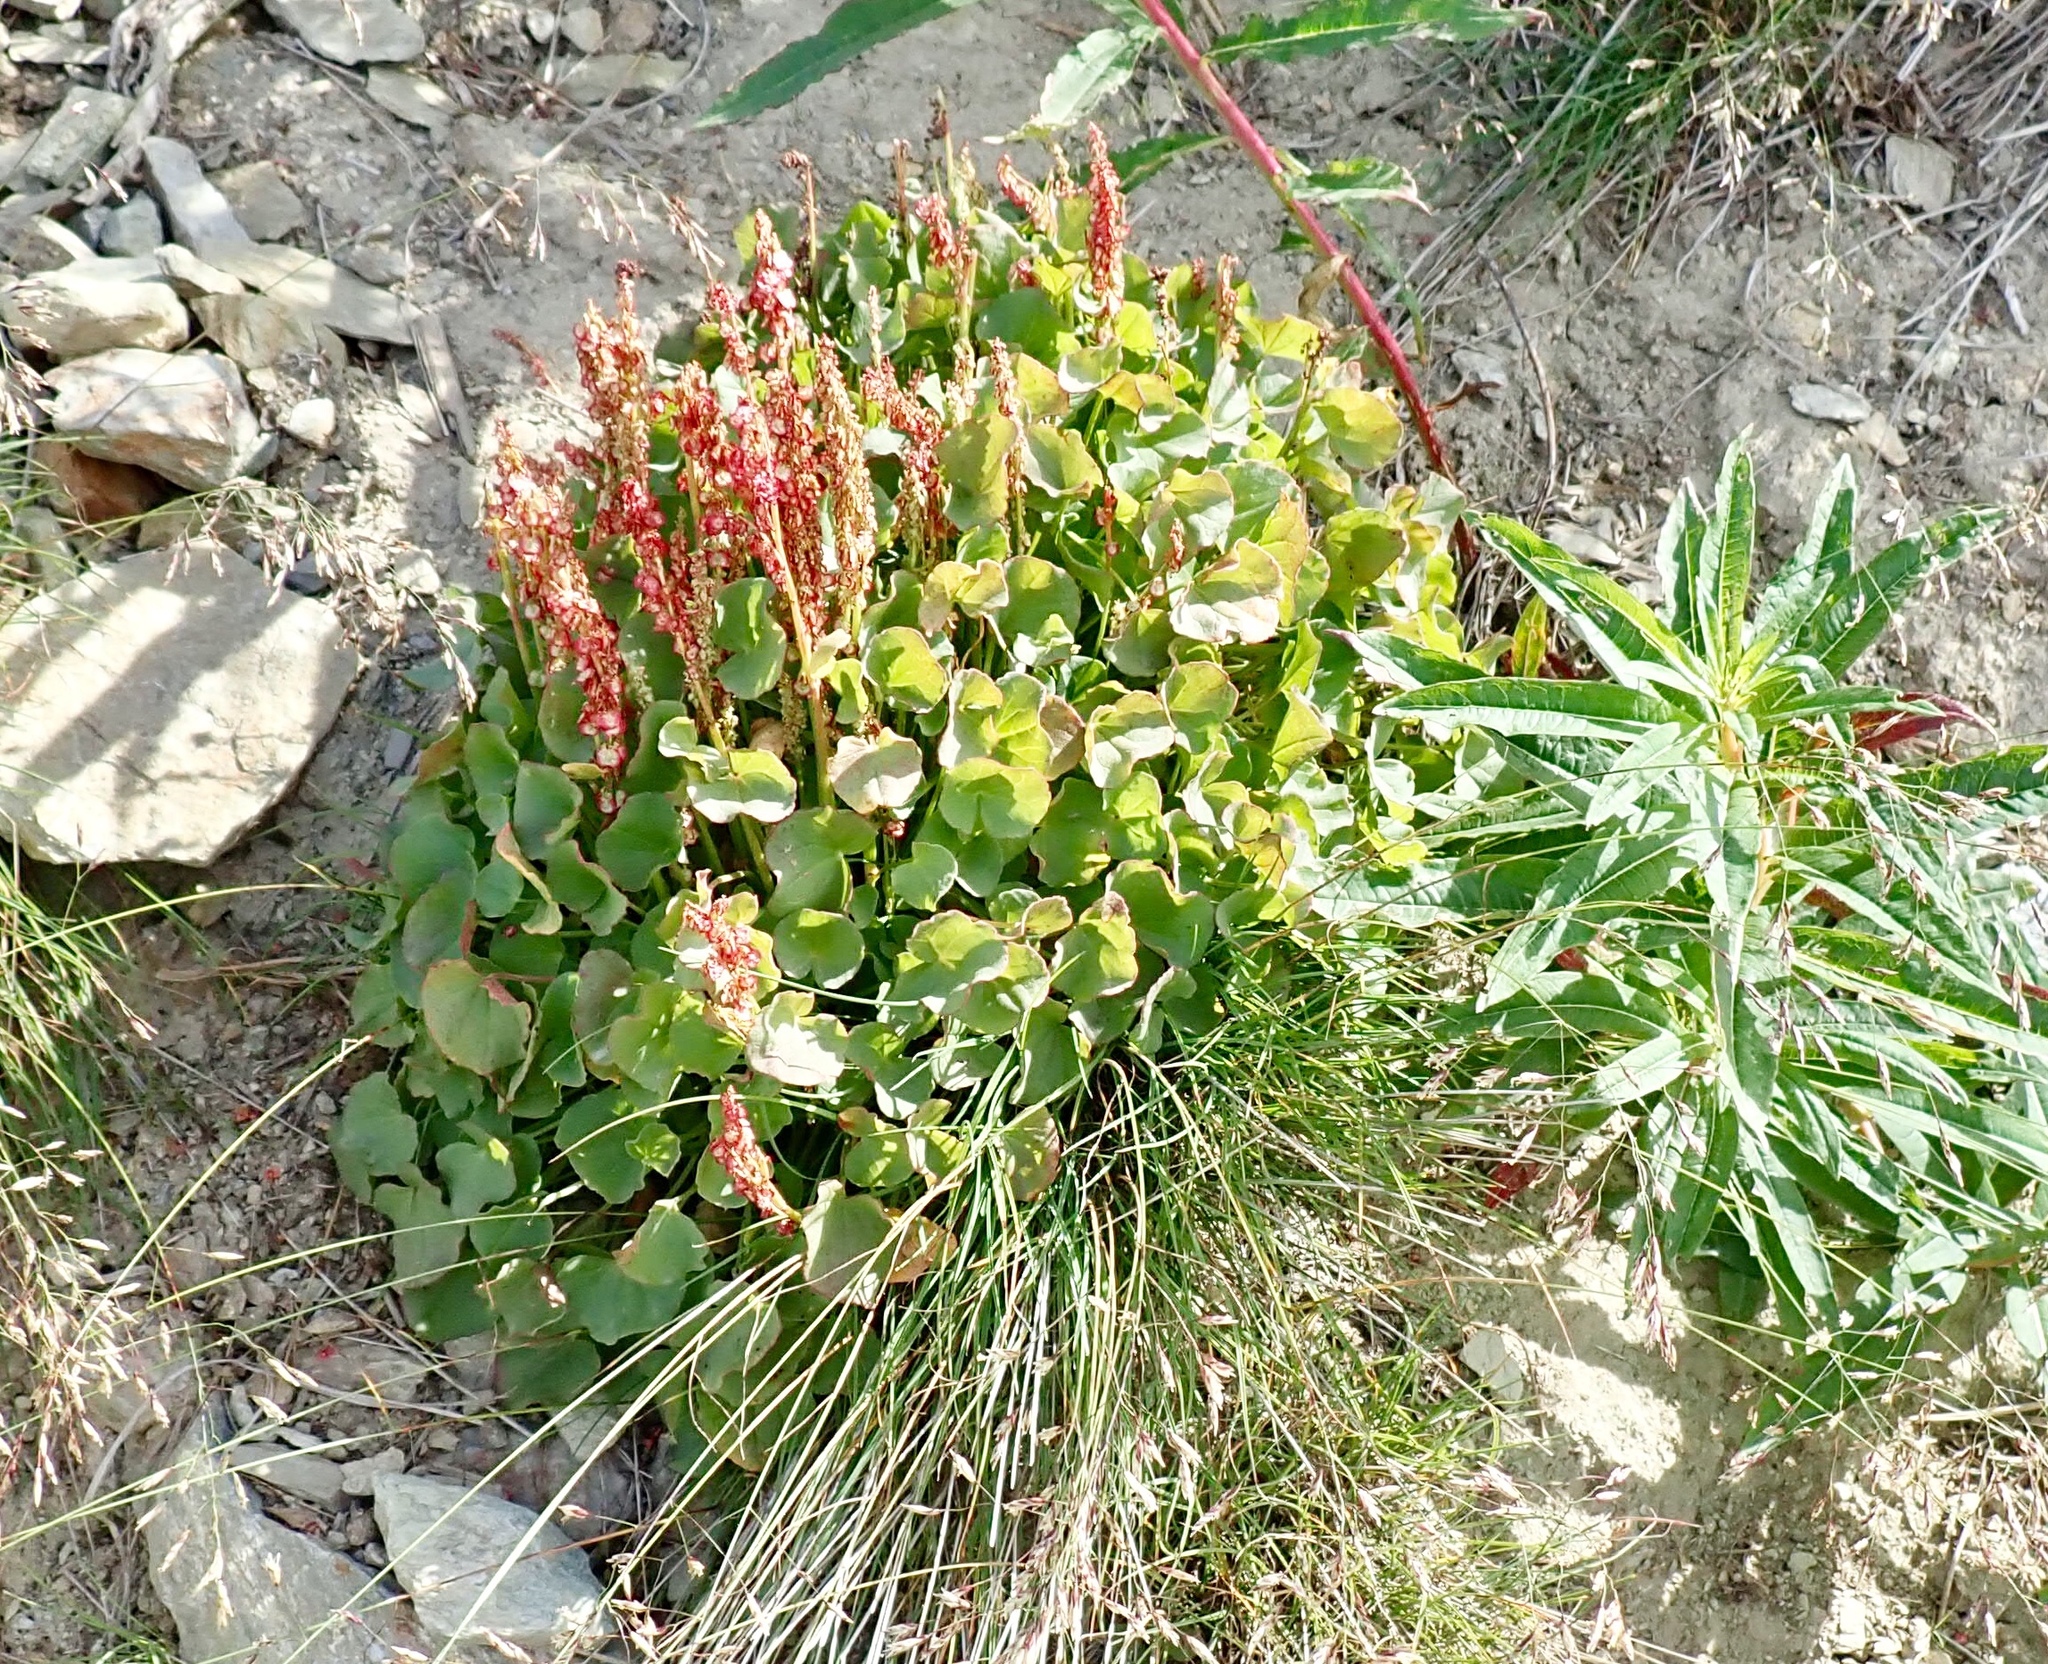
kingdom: Plantae
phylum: Tracheophyta
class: Magnoliopsida
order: Caryophyllales
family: Polygonaceae
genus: Oxyria
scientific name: Oxyria digyna
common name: Alpine mountain-sorrel
